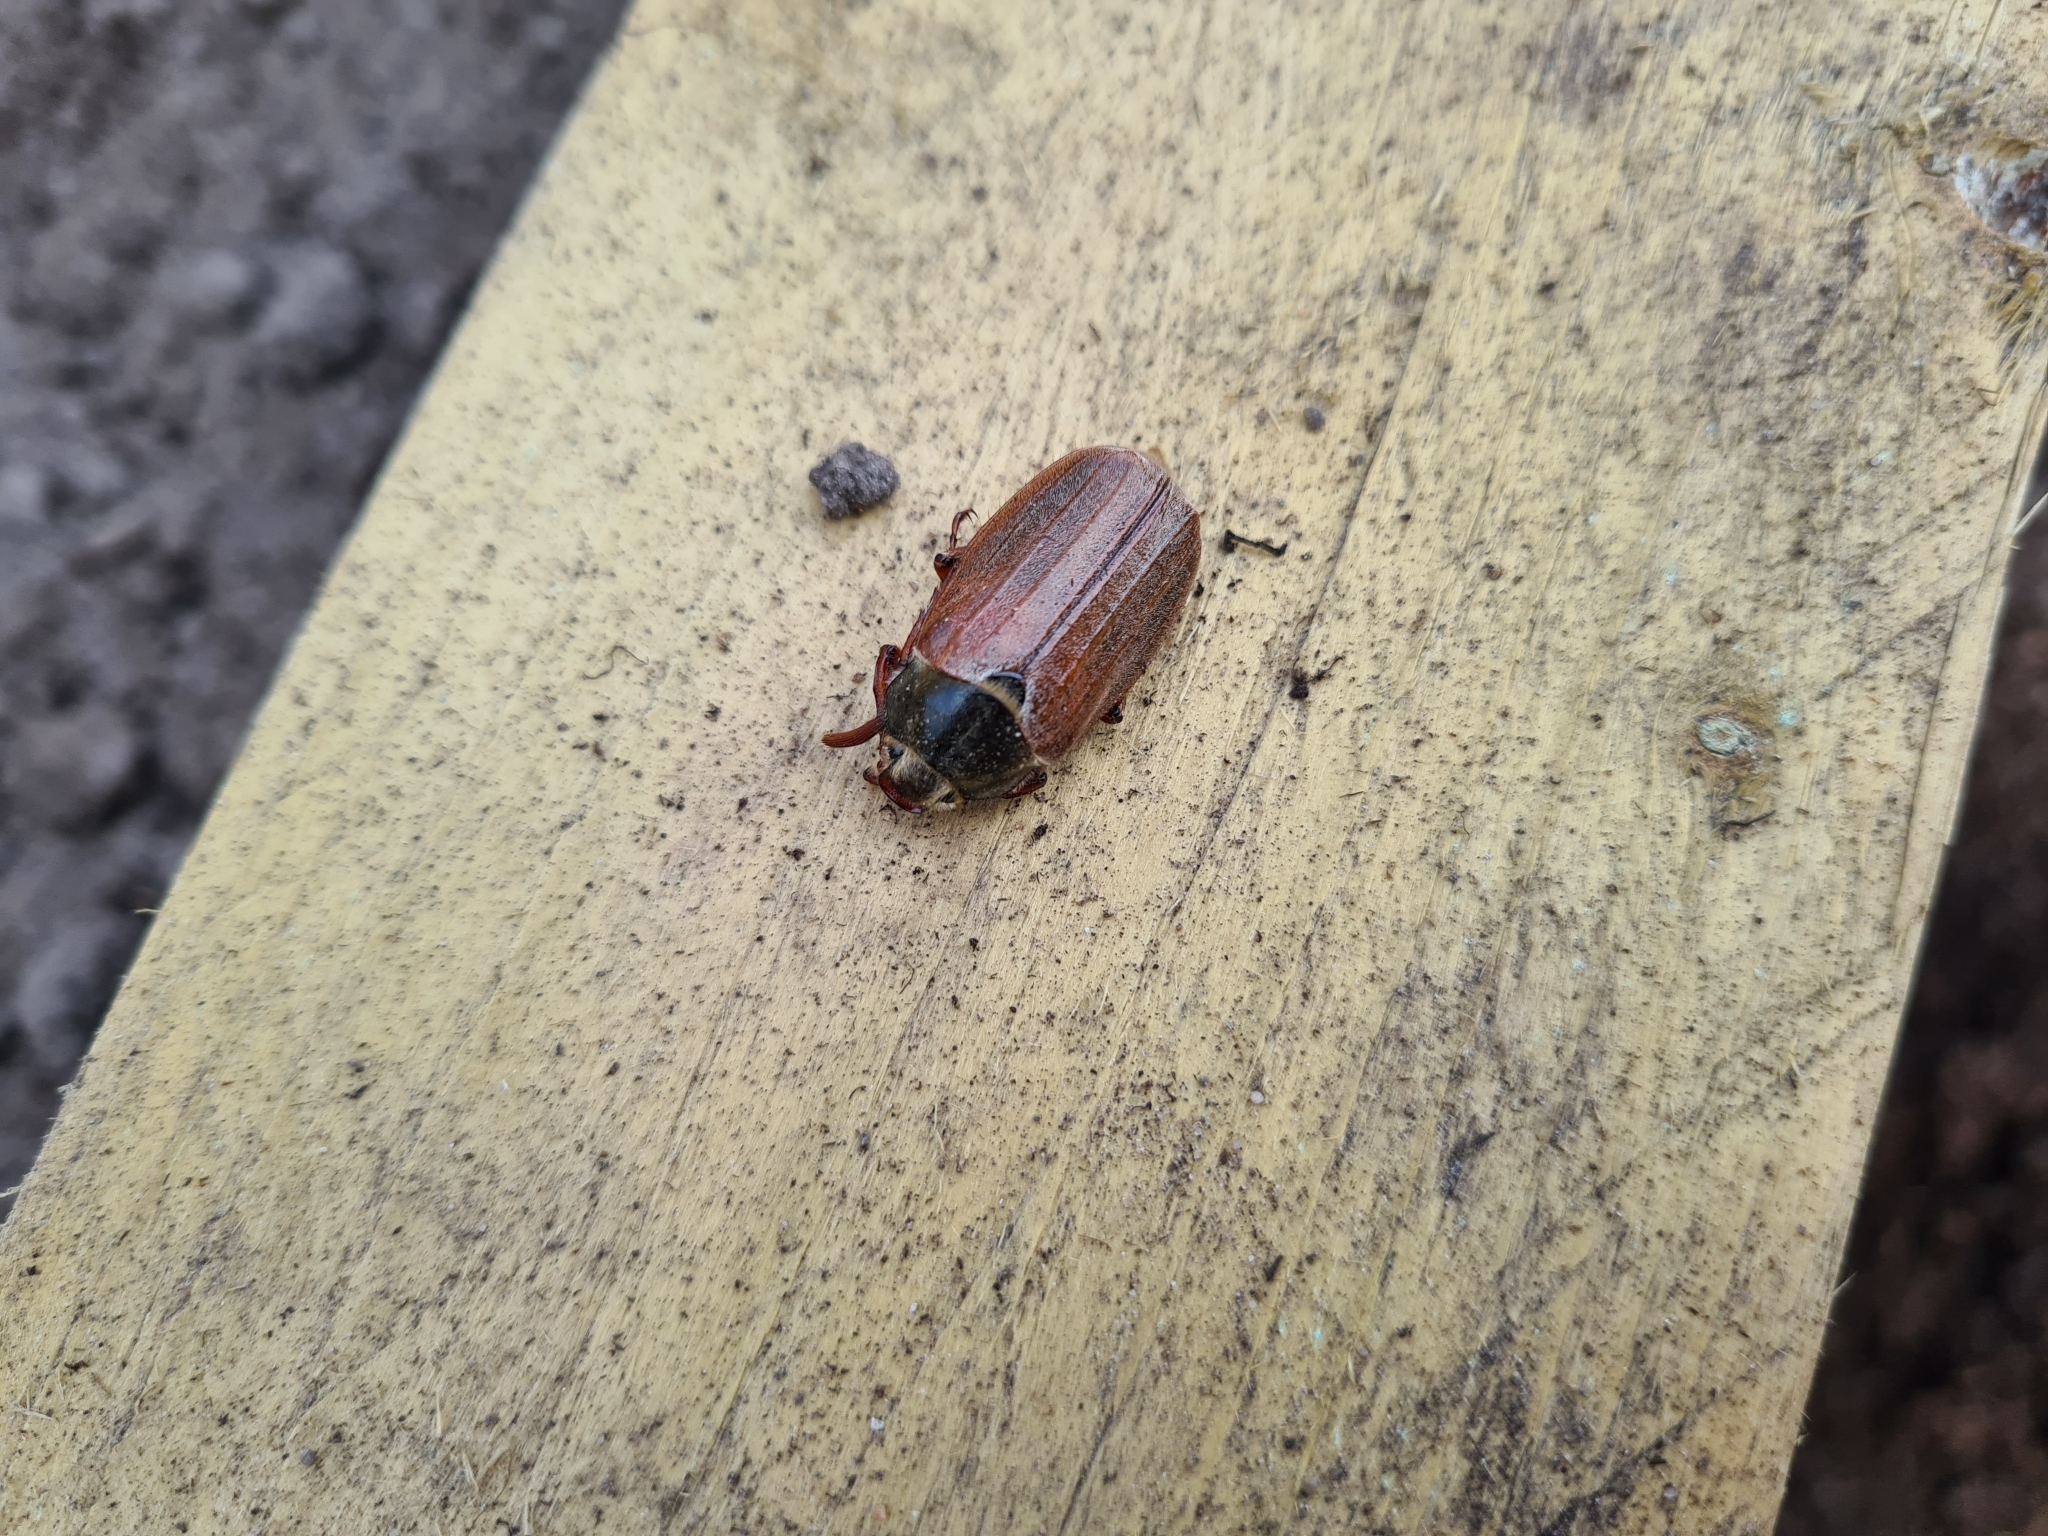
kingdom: Animalia
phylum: Arthropoda
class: Insecta
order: Coleoptera
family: Scarabaeidae
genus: Melolontha
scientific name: Melolontha melolontha
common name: Cockchafer maybeetle
